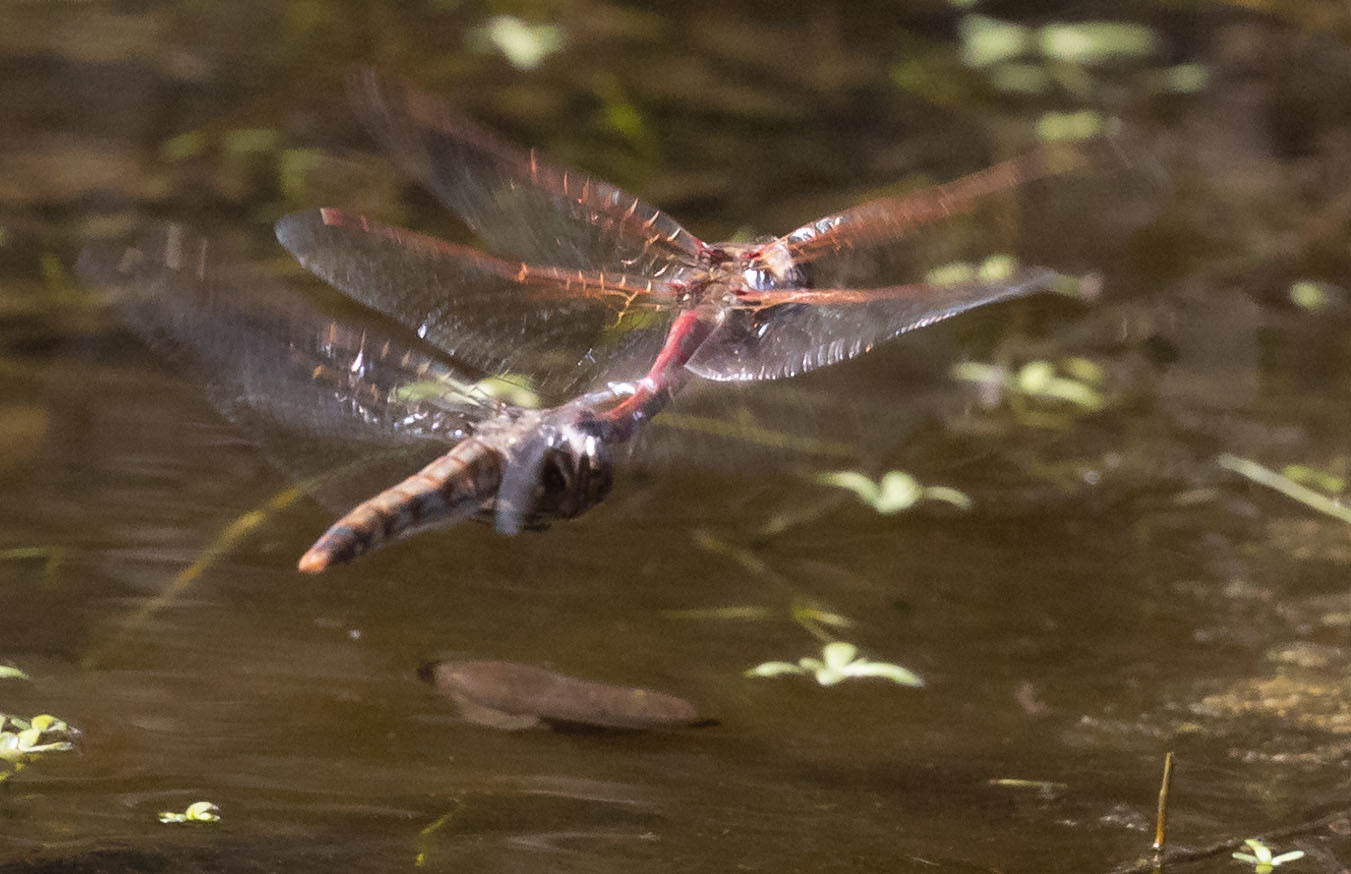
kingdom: Animalia
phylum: Arthropoda
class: Insecta
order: Odonata
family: Libellulidae
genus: Sympetrum
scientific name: Sympetrum corruptum
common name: Variegated meadowhawk
